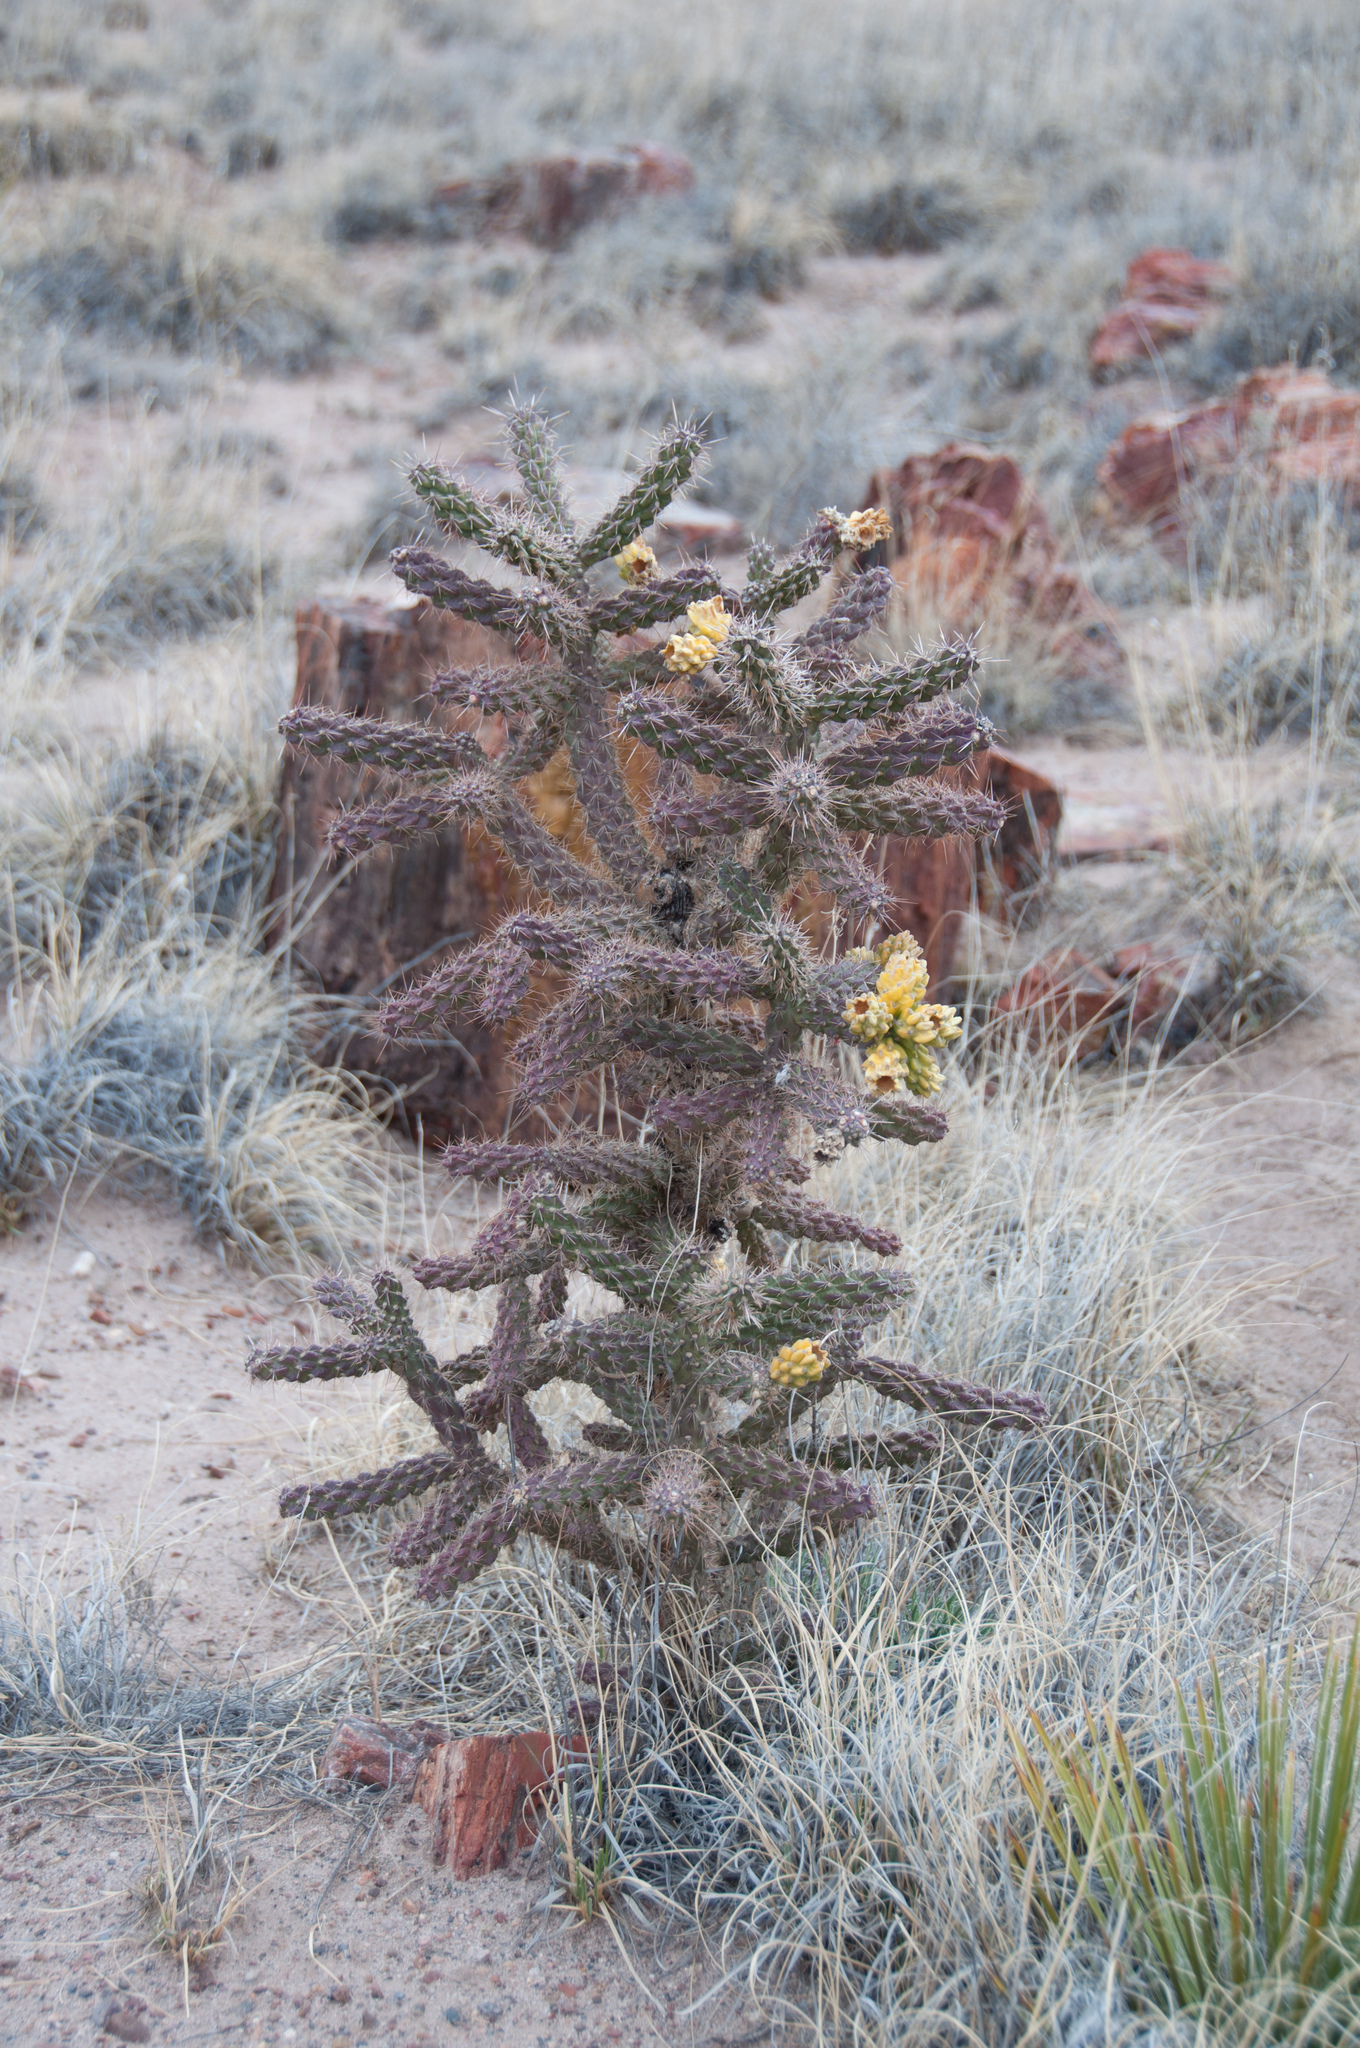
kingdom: Plantae
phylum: Tracheophyta
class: Magnoliopsida
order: Caryophyllales
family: Cactaceae
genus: Cylindropuntia
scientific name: Cylindropuntia imbricata
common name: Candelabrum cactus
